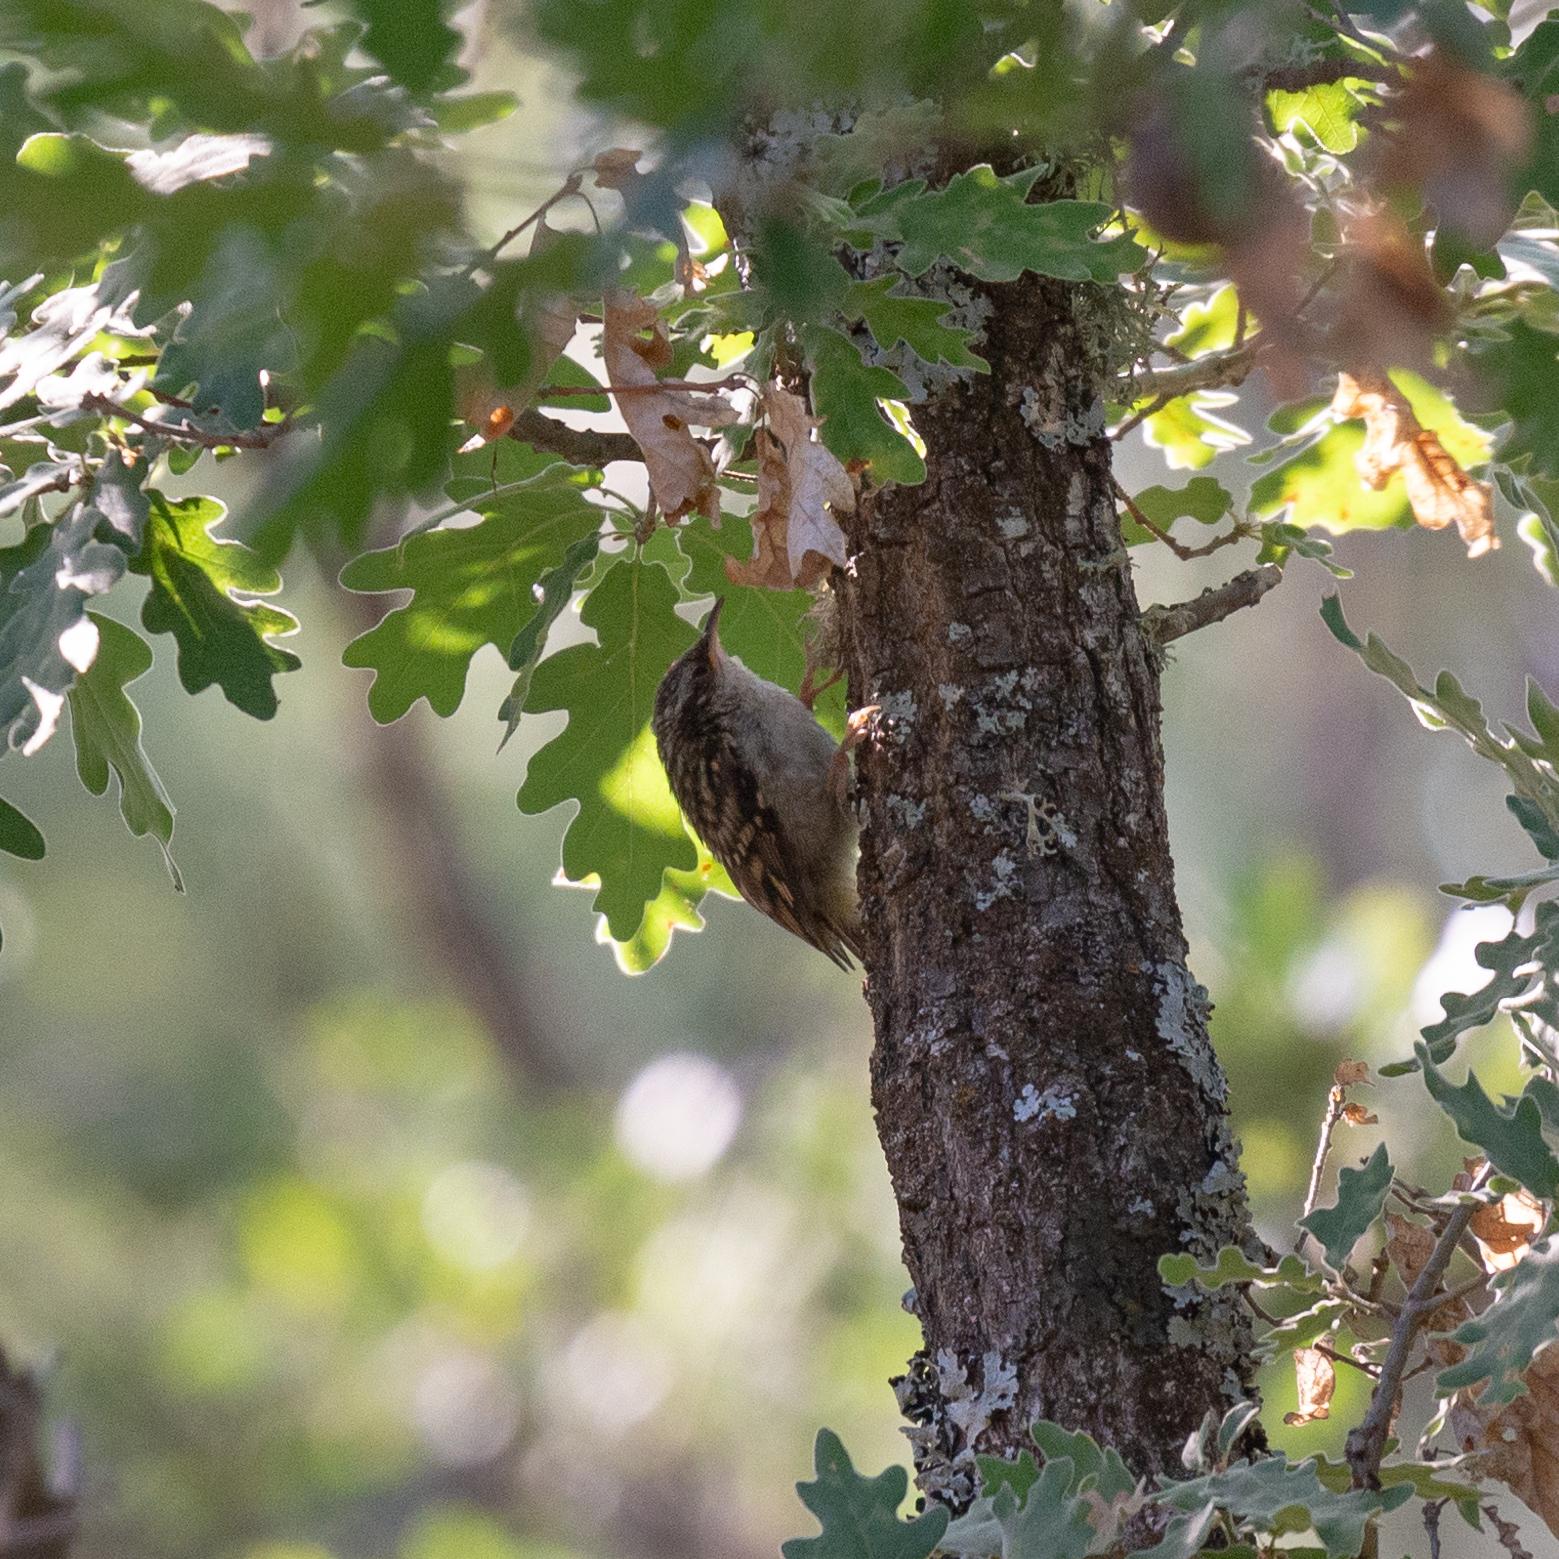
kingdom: Animalia
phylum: Chordata
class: Aves
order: Passeriformes
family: Certhiidae
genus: Certhia
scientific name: Certhia brachydactyla
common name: Short-toed treecreeper
